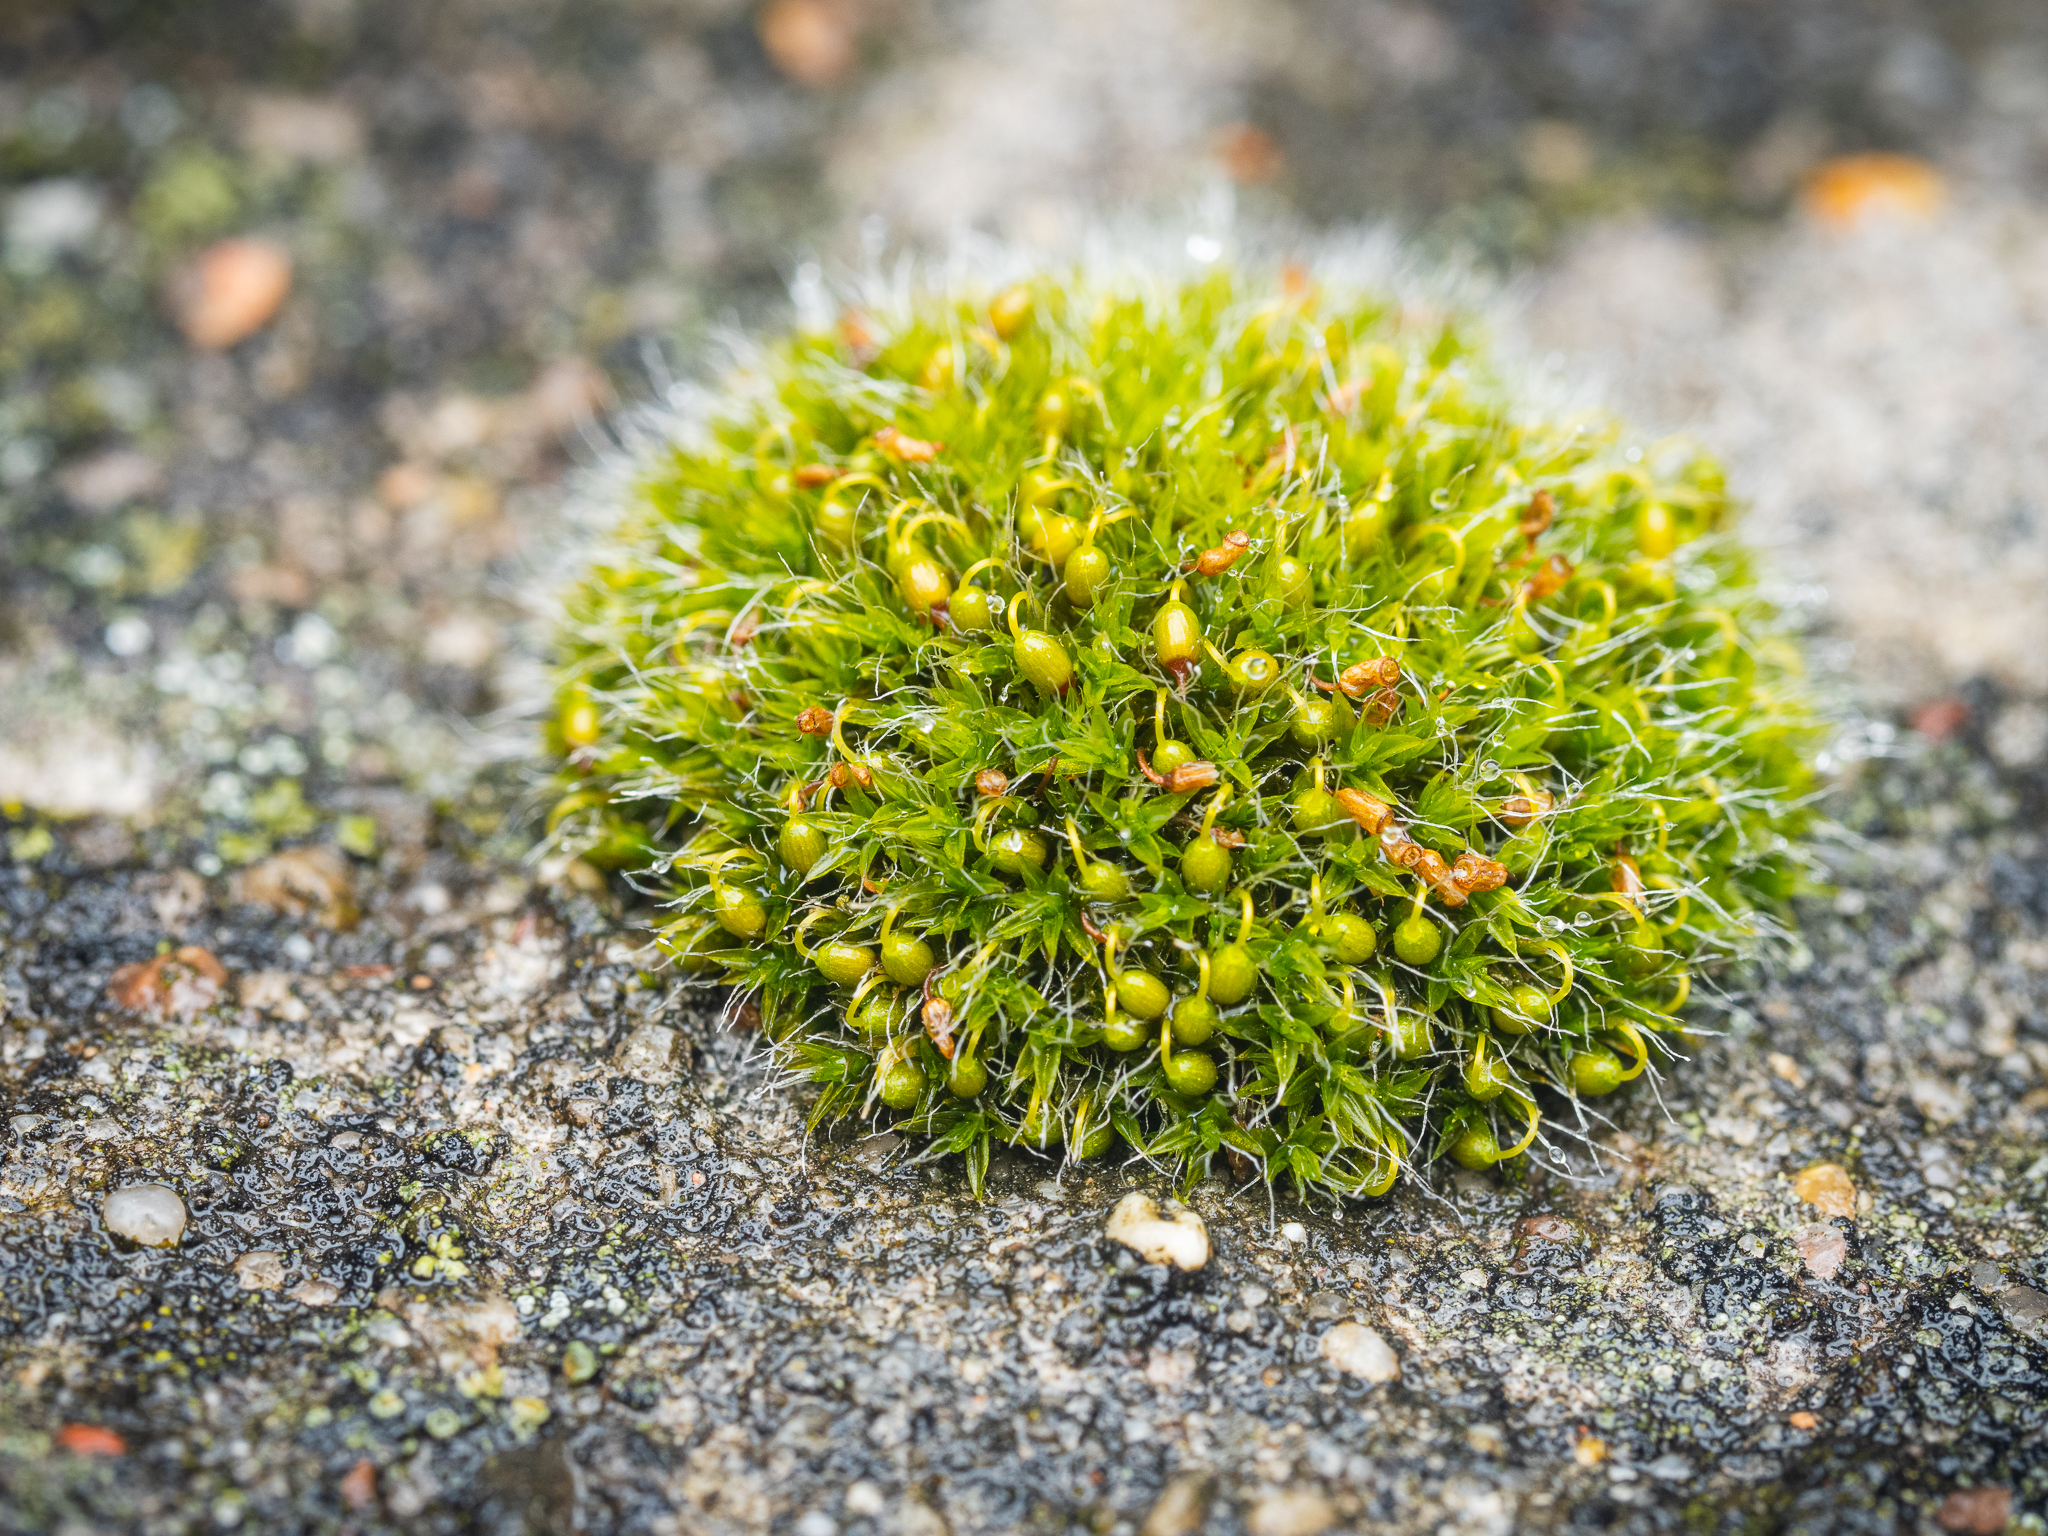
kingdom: Plantae
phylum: Bryophyta
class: Bryopsida
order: Grimmiales
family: Grimmiaceae
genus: Grimmia
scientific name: Grimmia pulvinata
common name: Grey-cushioned grimmia
